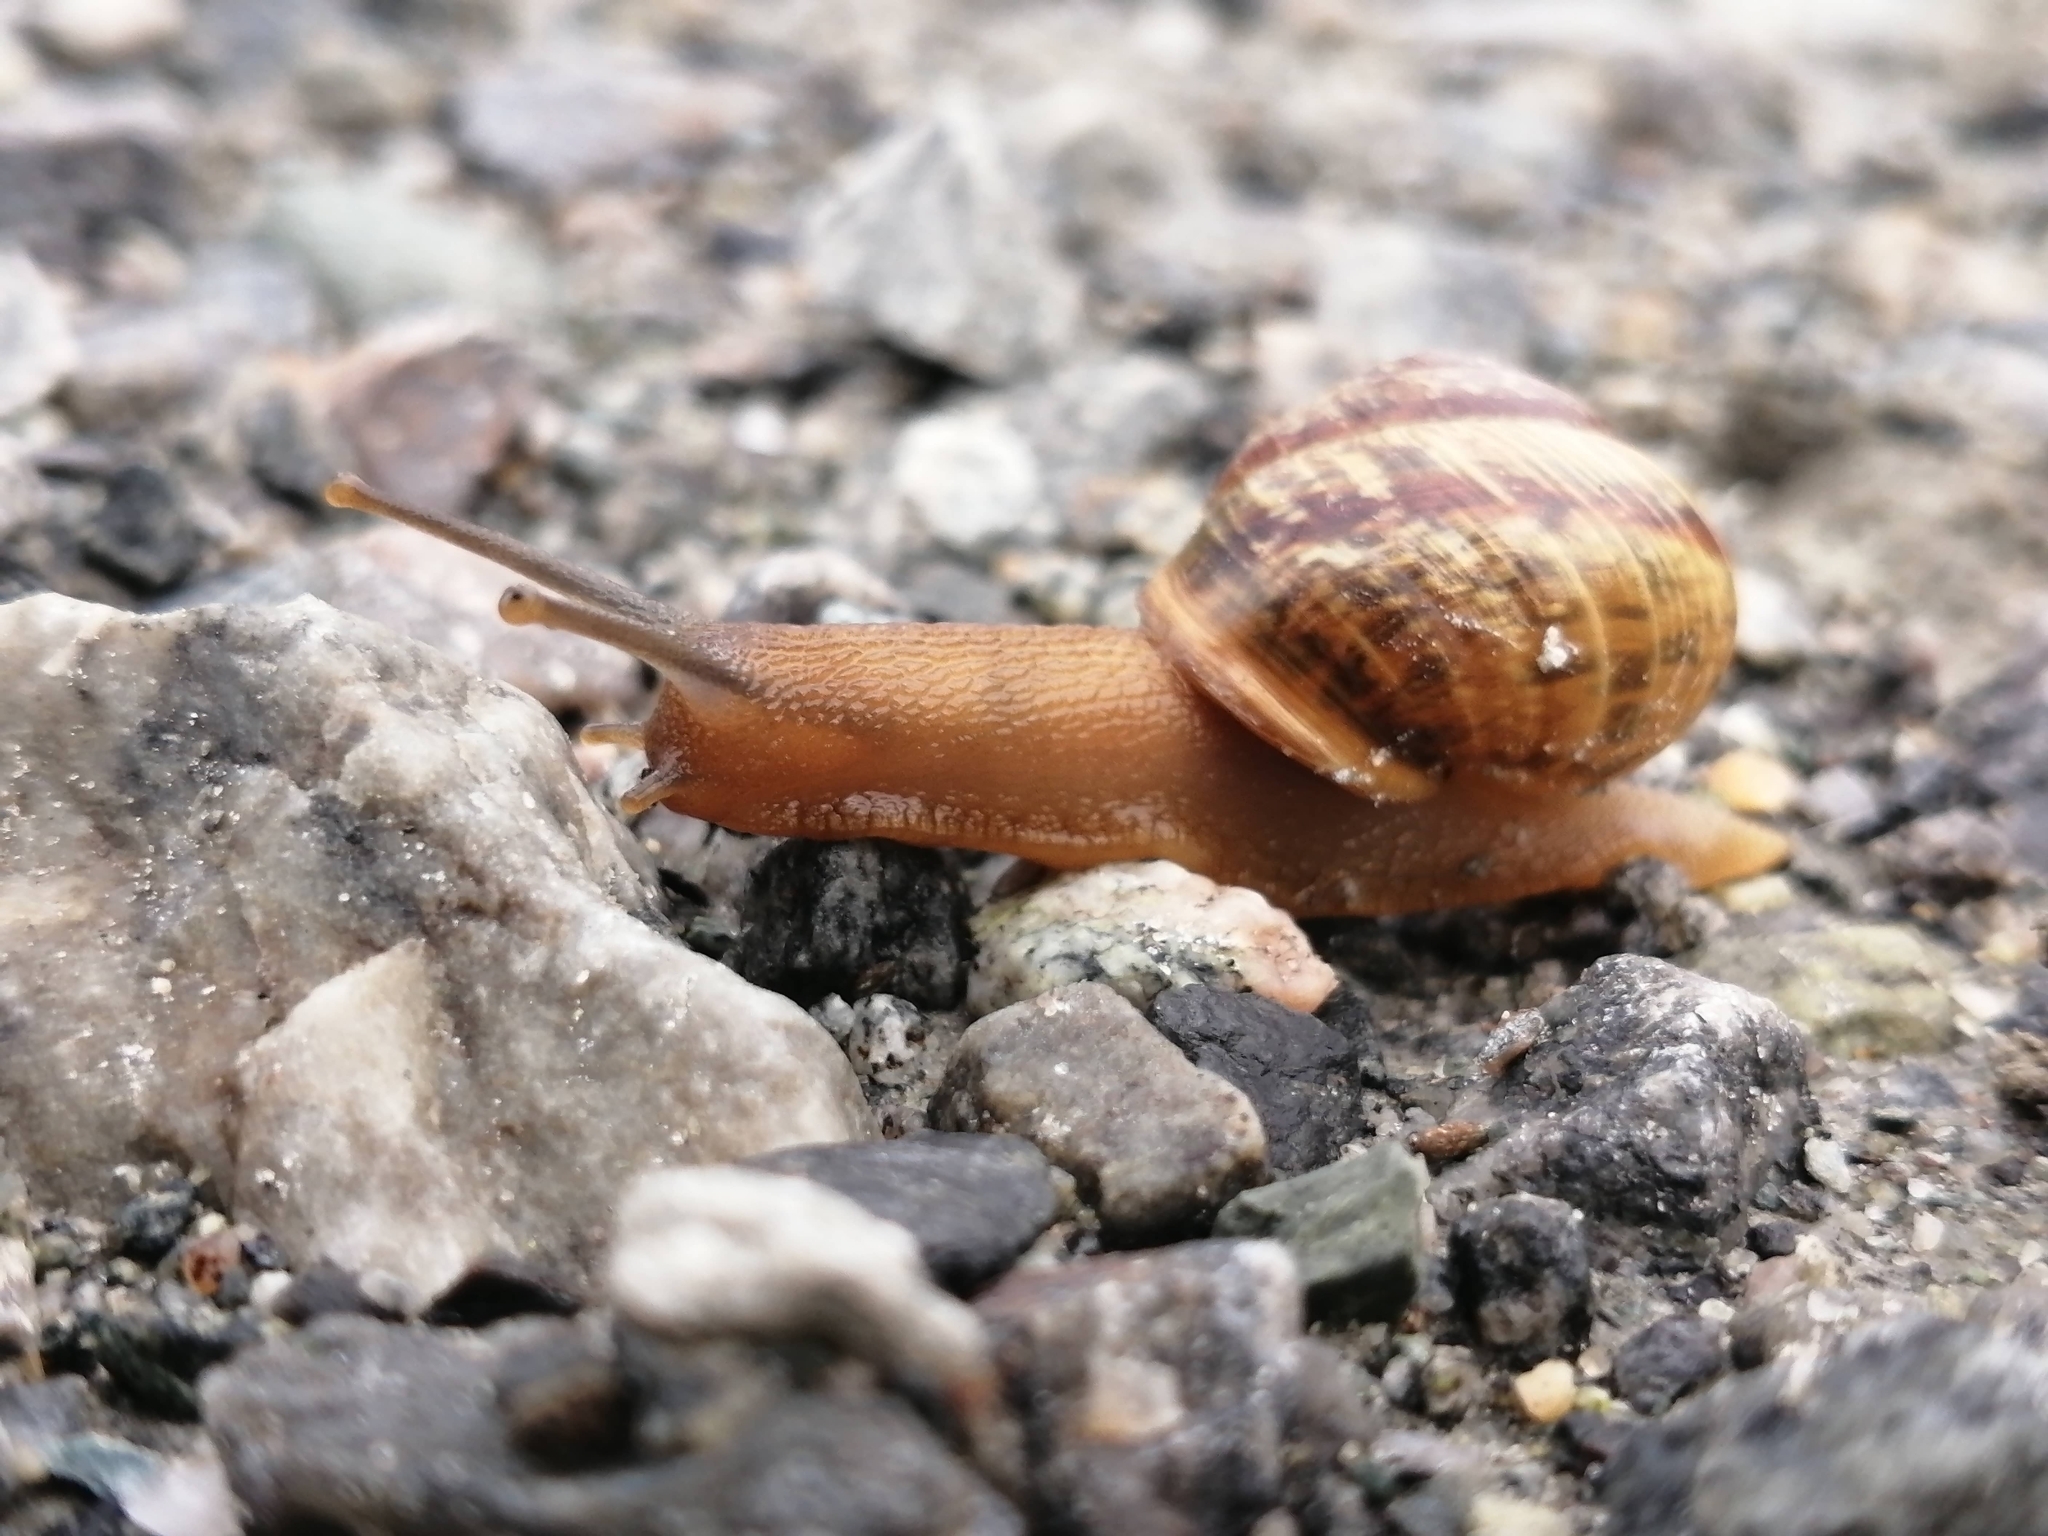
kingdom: Animalia
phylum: Mollusca
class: Gastropoda
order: Stylommatophora
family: Helicidae
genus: Arianta
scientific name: Arianta arbustorum
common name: Copse snail
